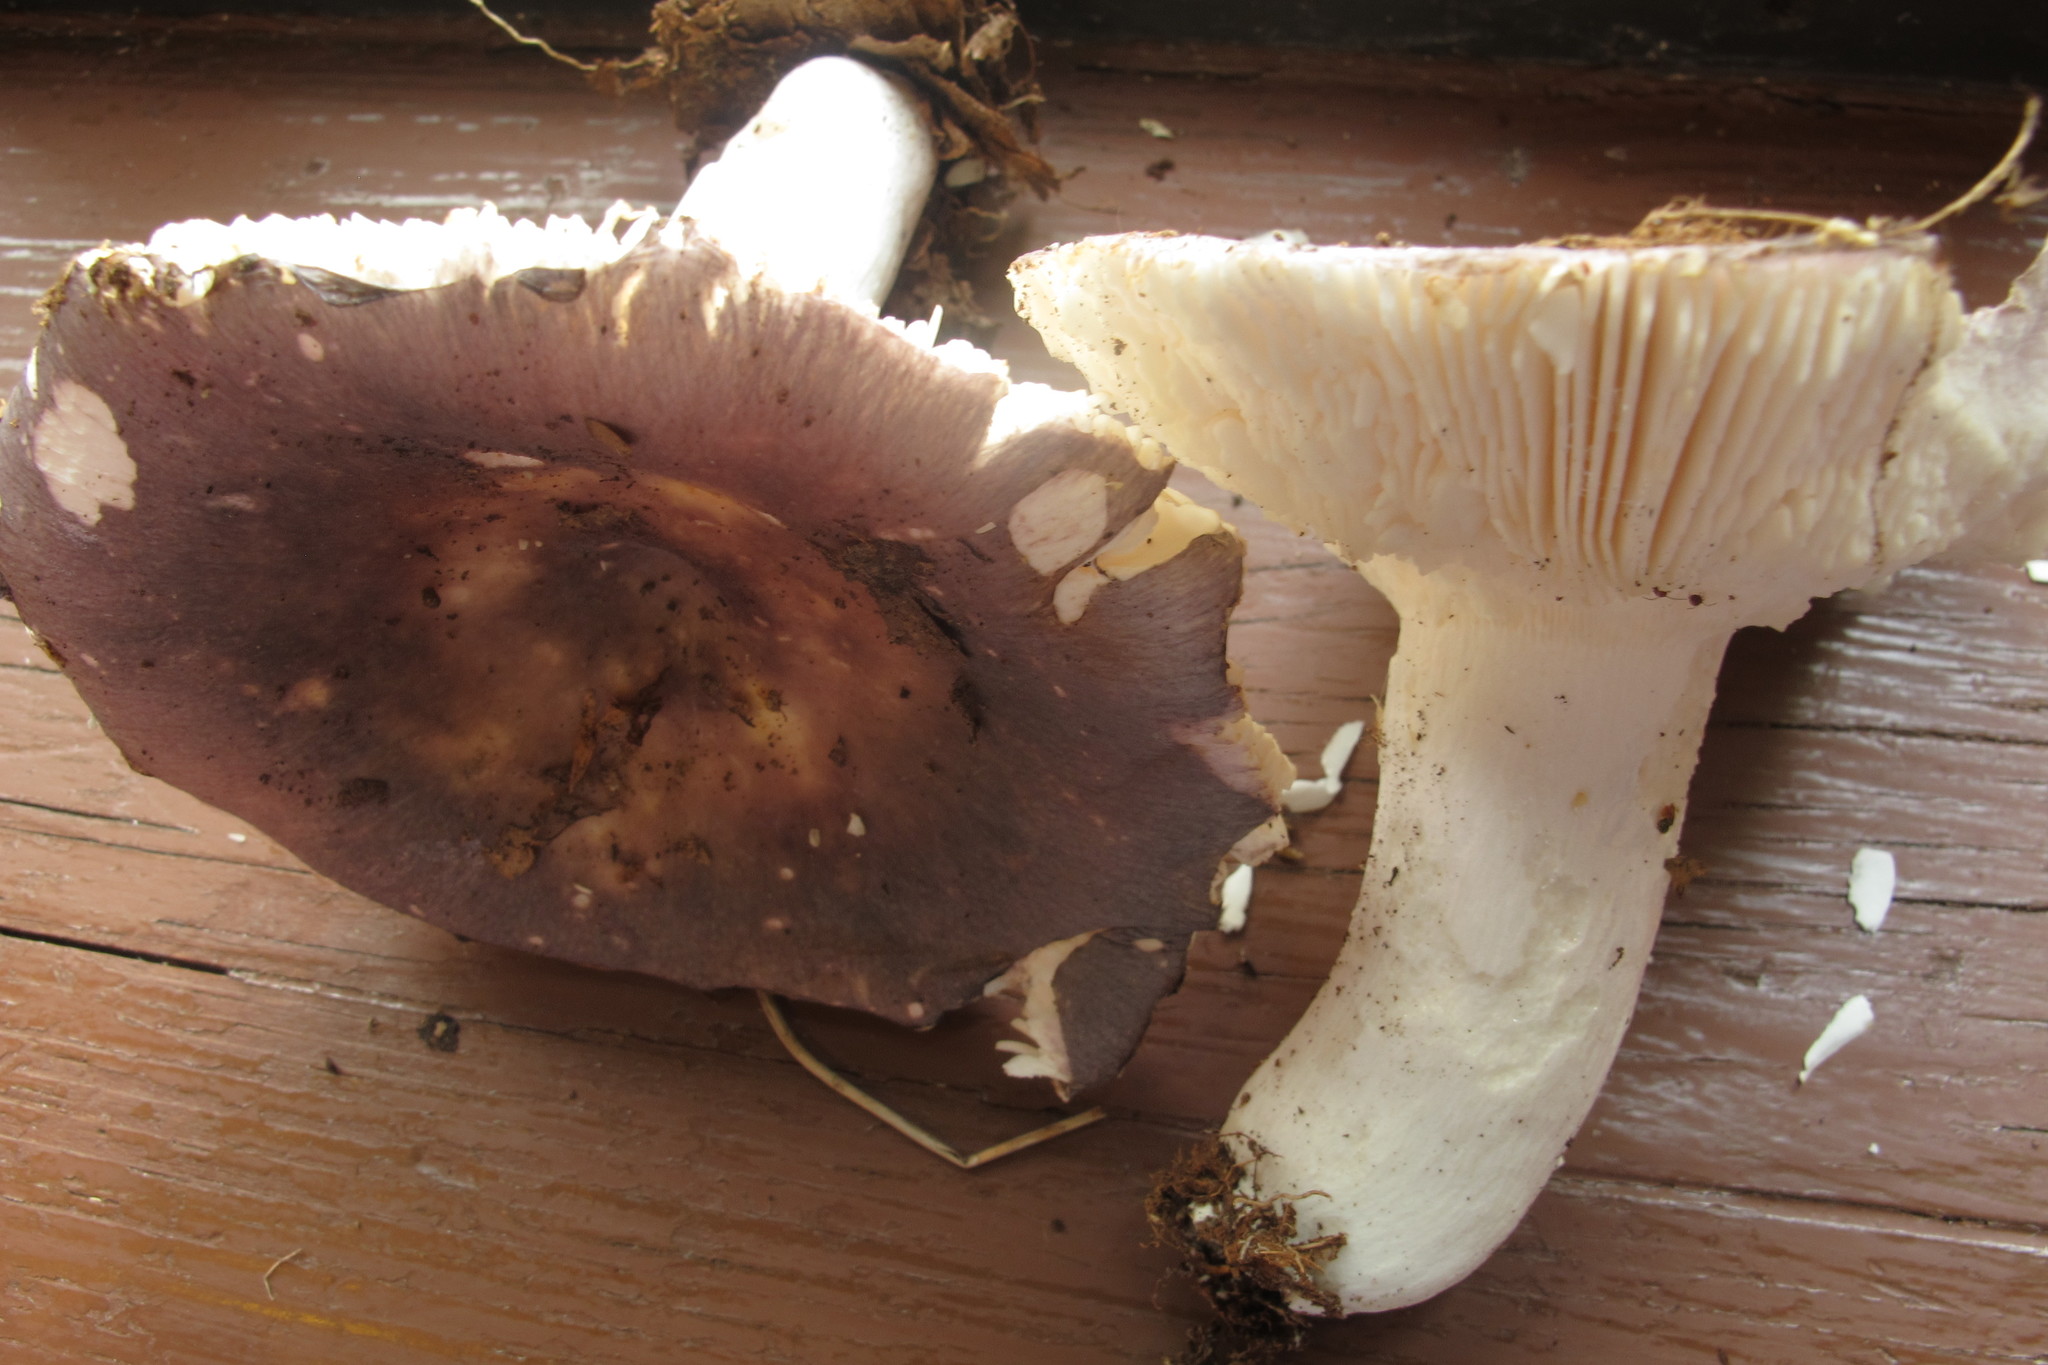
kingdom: Fungi
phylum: Basidiomycota
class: Agaricomycetes
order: Russulales
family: Russulaceae
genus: Russula
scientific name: Russula ionochlora
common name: Marbled brittlegill
